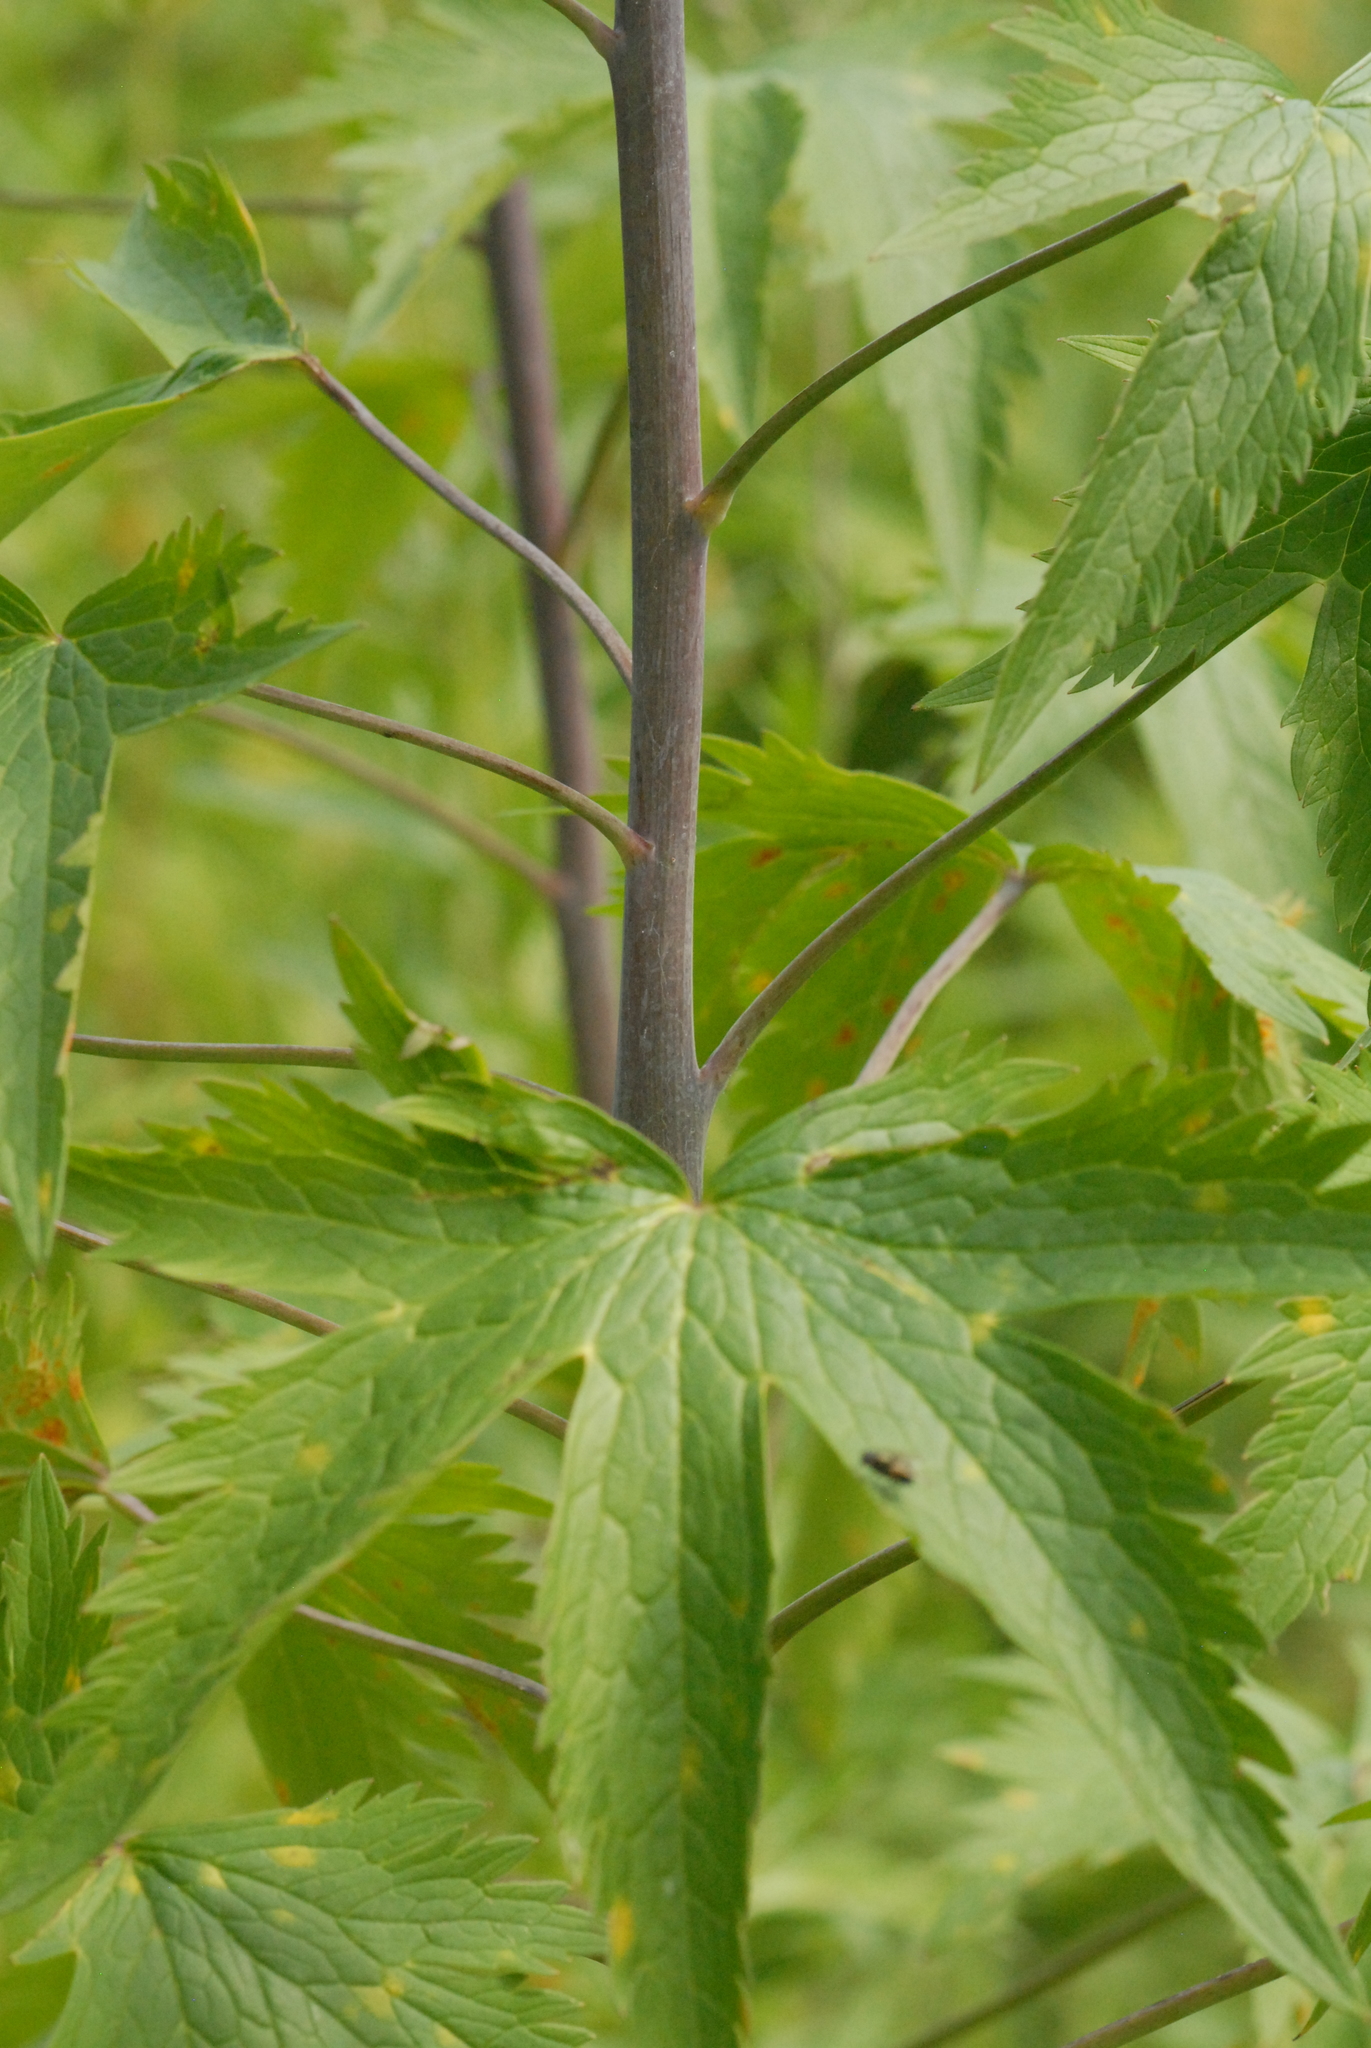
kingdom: Plantae
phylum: Tracheophyta
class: Magnoliopsida
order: Ranunculales
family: Ranunculaceae
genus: Delphinium
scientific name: Delphinium elatum
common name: Candle larkspur
